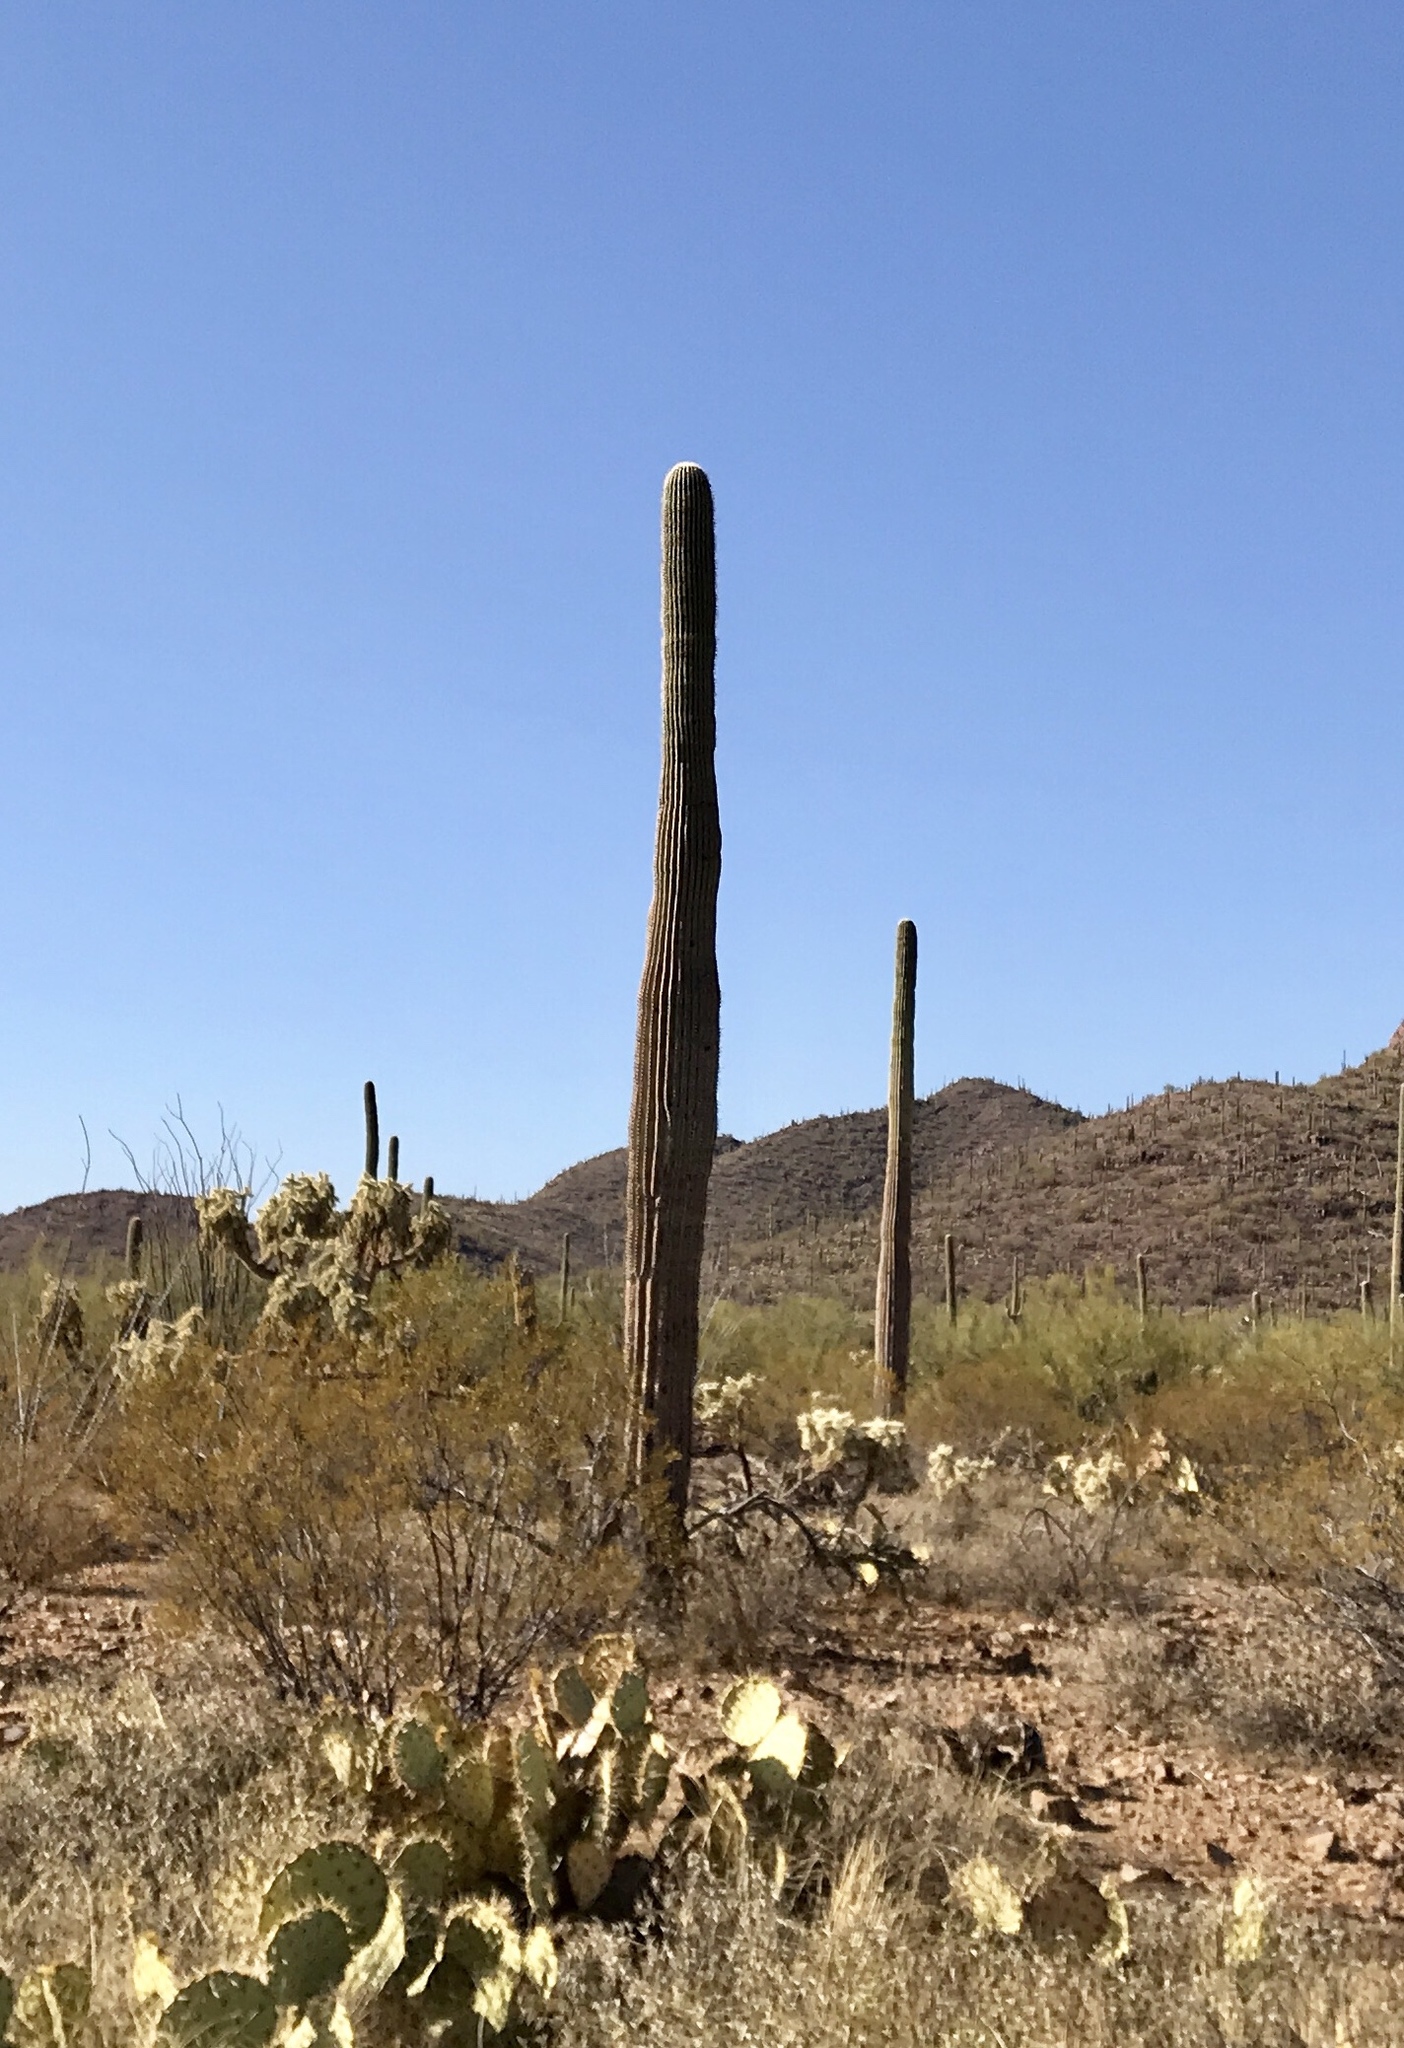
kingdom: Plantae
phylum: Tracheophyta
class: Magnoliopsida
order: Caryophyllales
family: Cactaceae
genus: Carnegiea
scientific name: Carnegiea gigantea
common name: Saguaro
